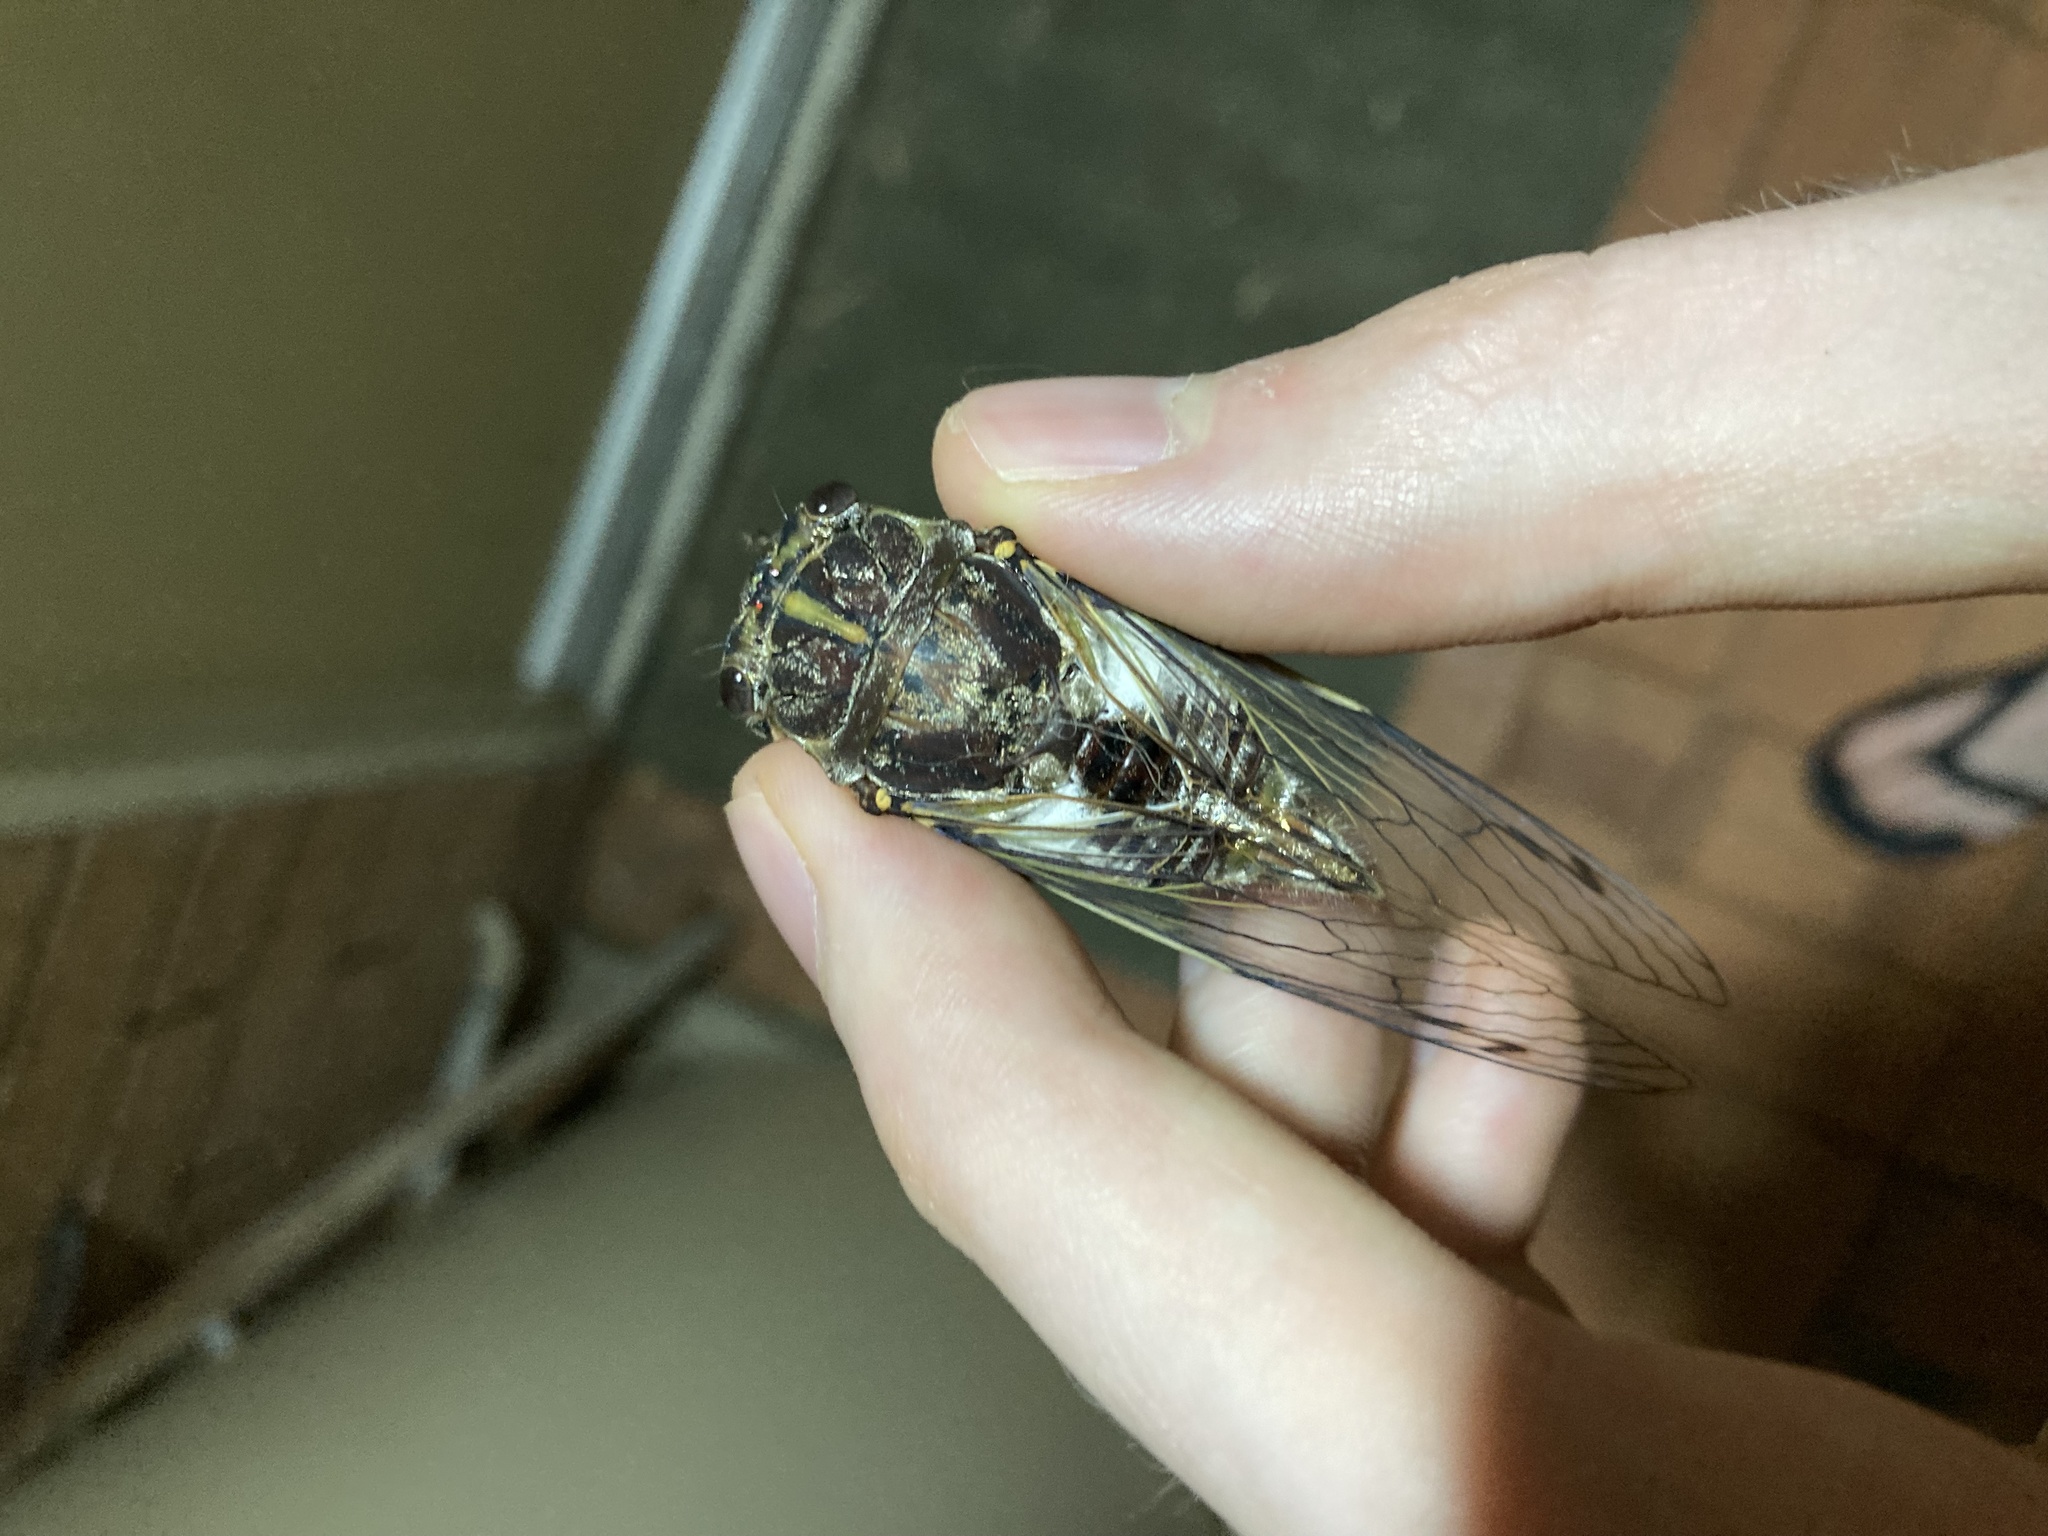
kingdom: Animalia
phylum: Arthropoda
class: Insecta
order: Hemiptera
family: Cicadidae
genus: Arunta
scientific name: Arunta perulata
